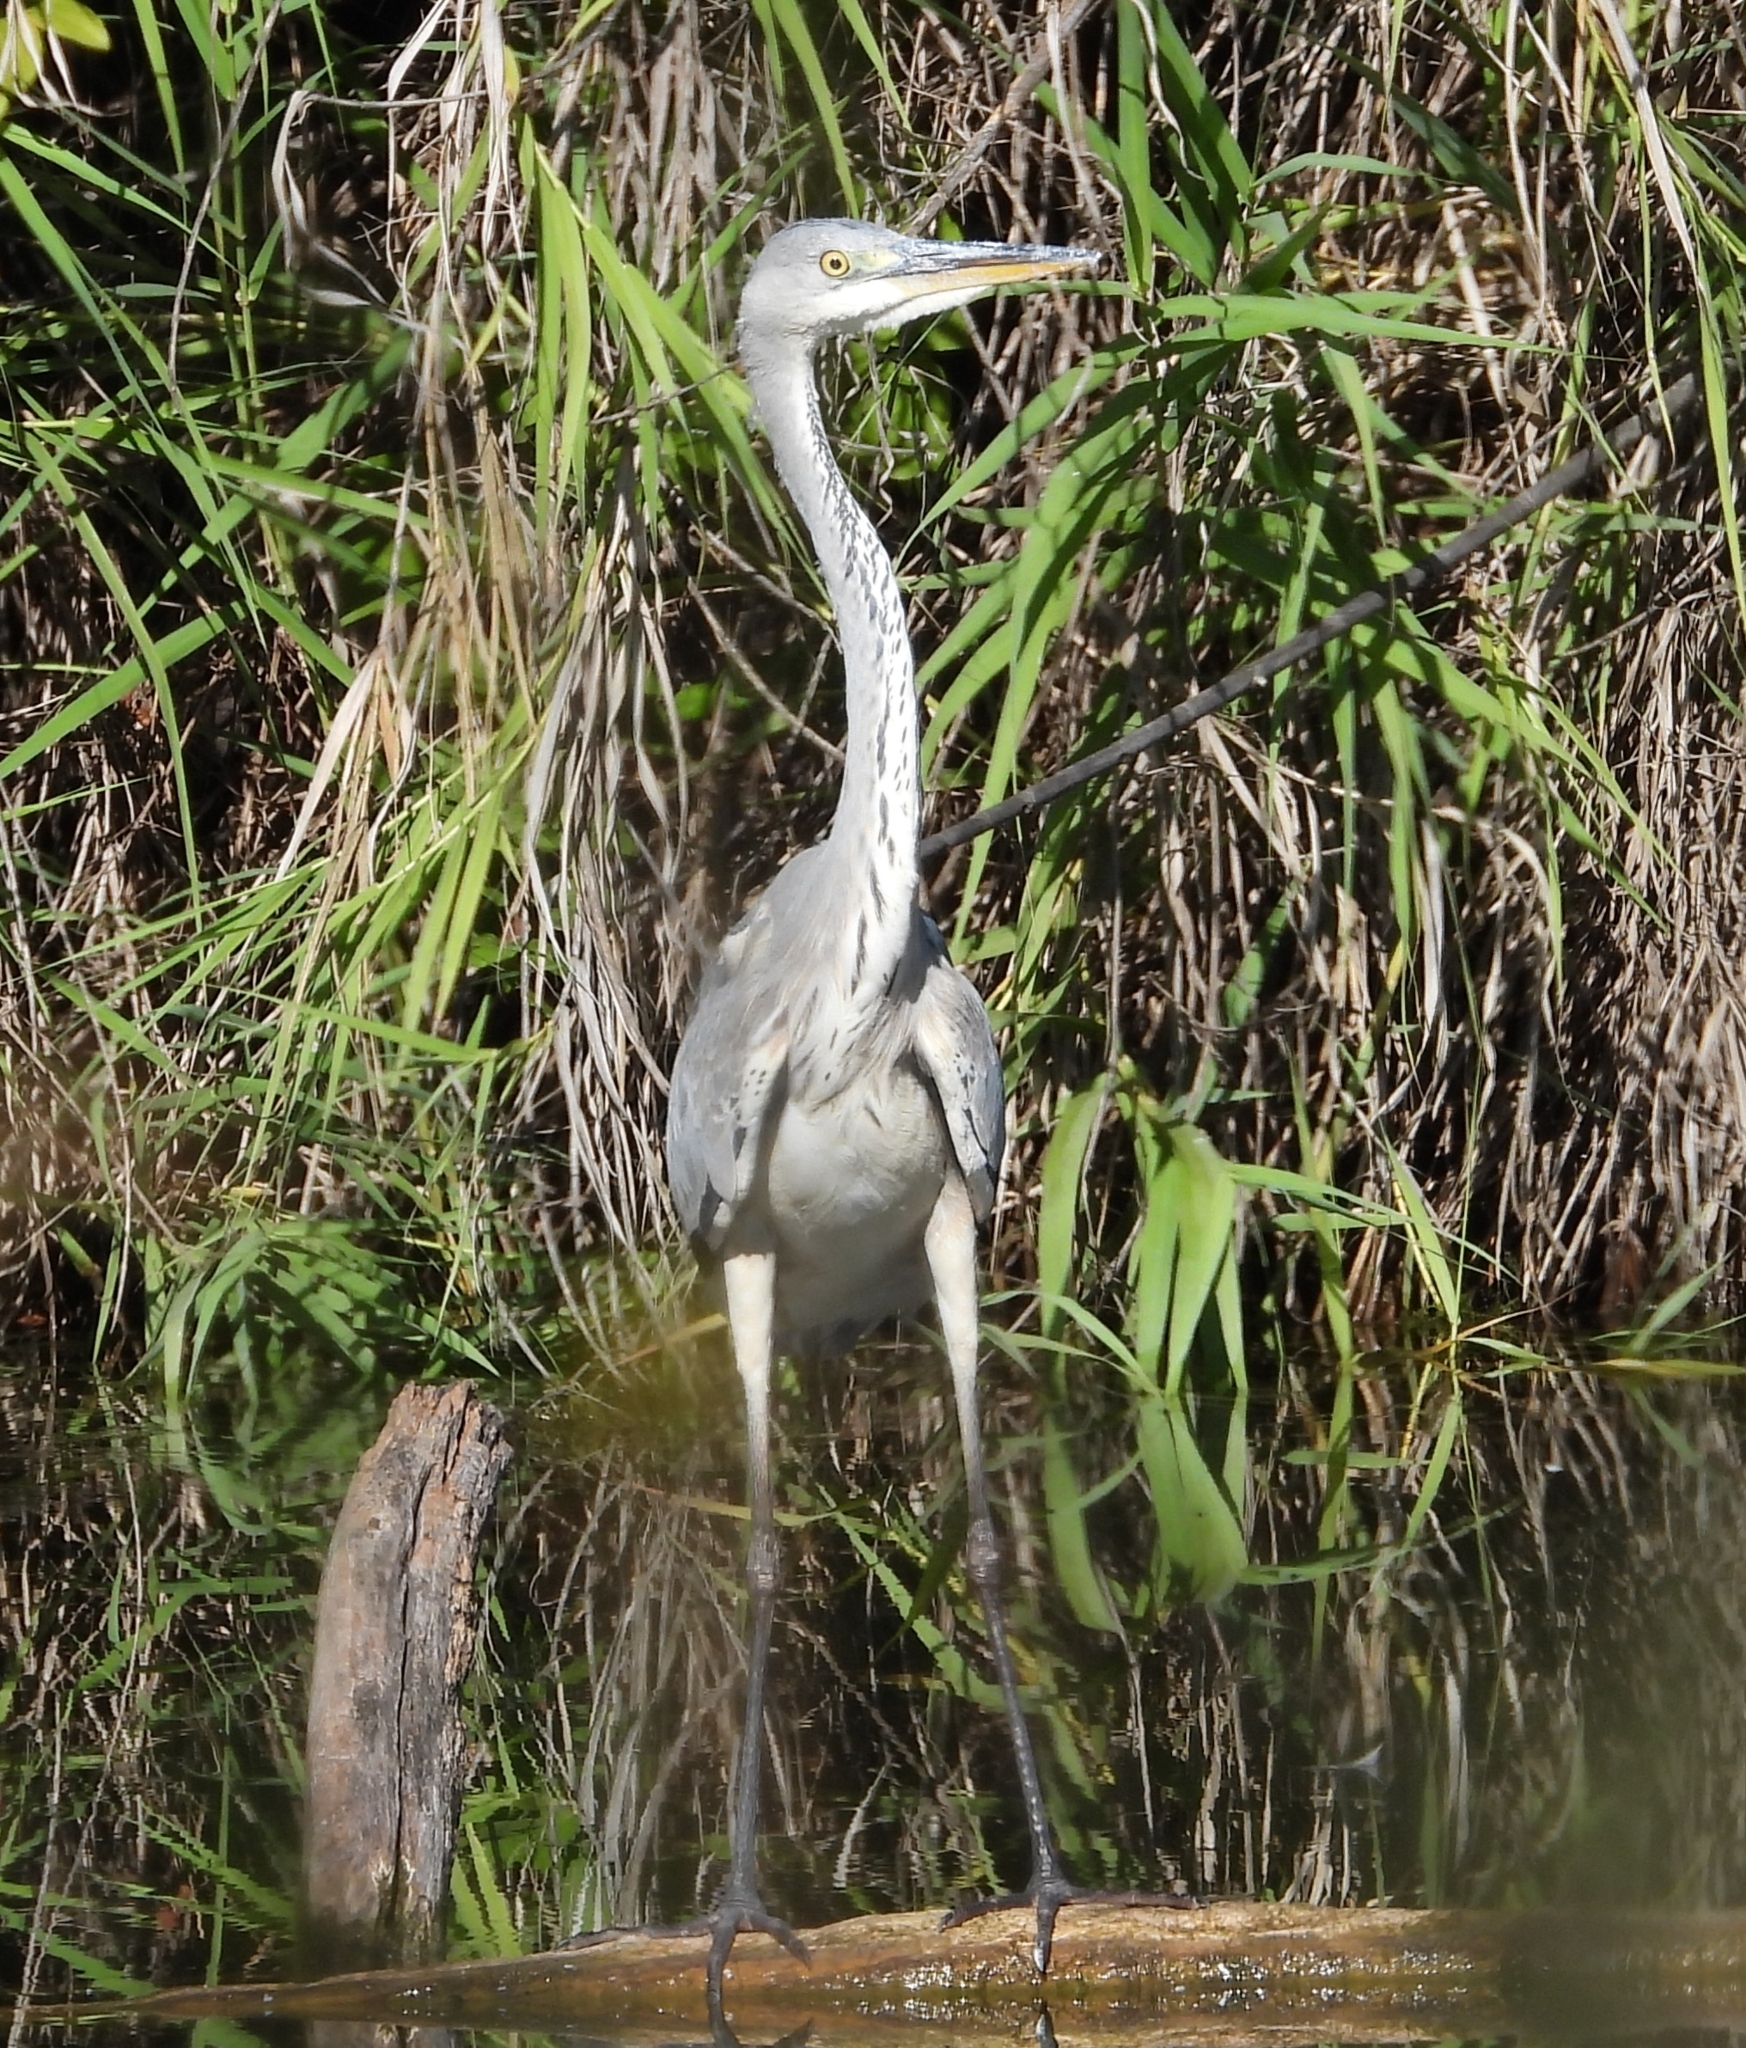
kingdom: Animalia
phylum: Chordata
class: Aves
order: Pelecaniformes
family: Ardeidae
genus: Ardea
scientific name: Ardea cinerea
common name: Grey heron
